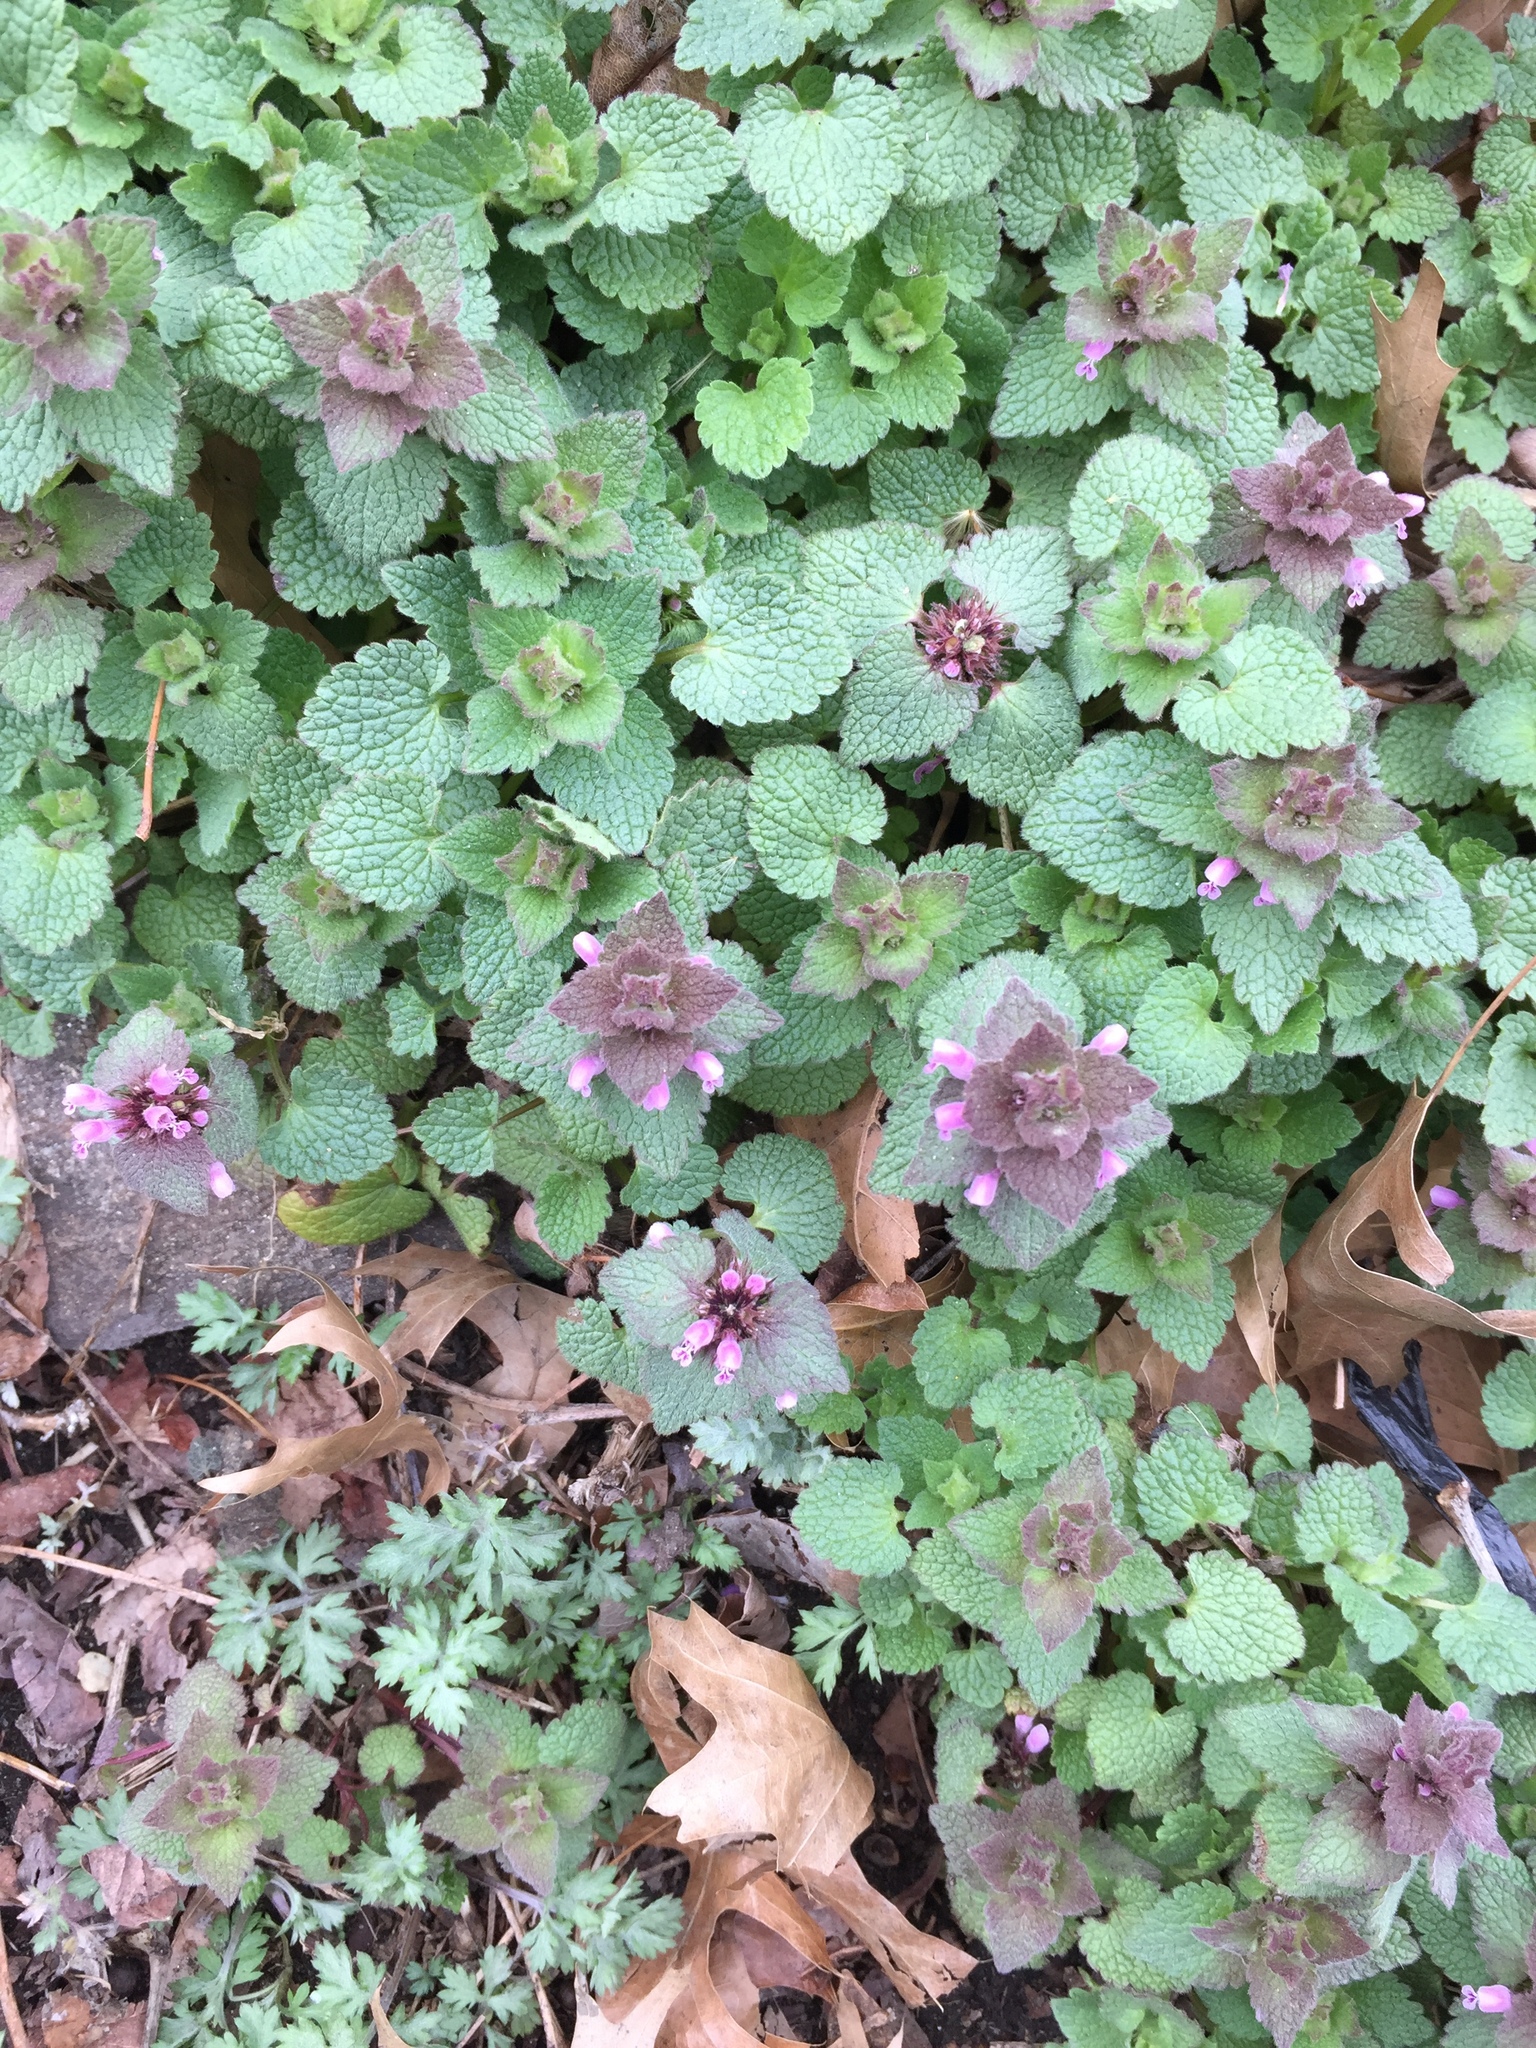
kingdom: Plantae
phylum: Tracheophyta
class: Magnoliopsida
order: Lamiales
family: Lamiaceae
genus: Lamium
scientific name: Lamium purpureum
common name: Red dead-nettle
